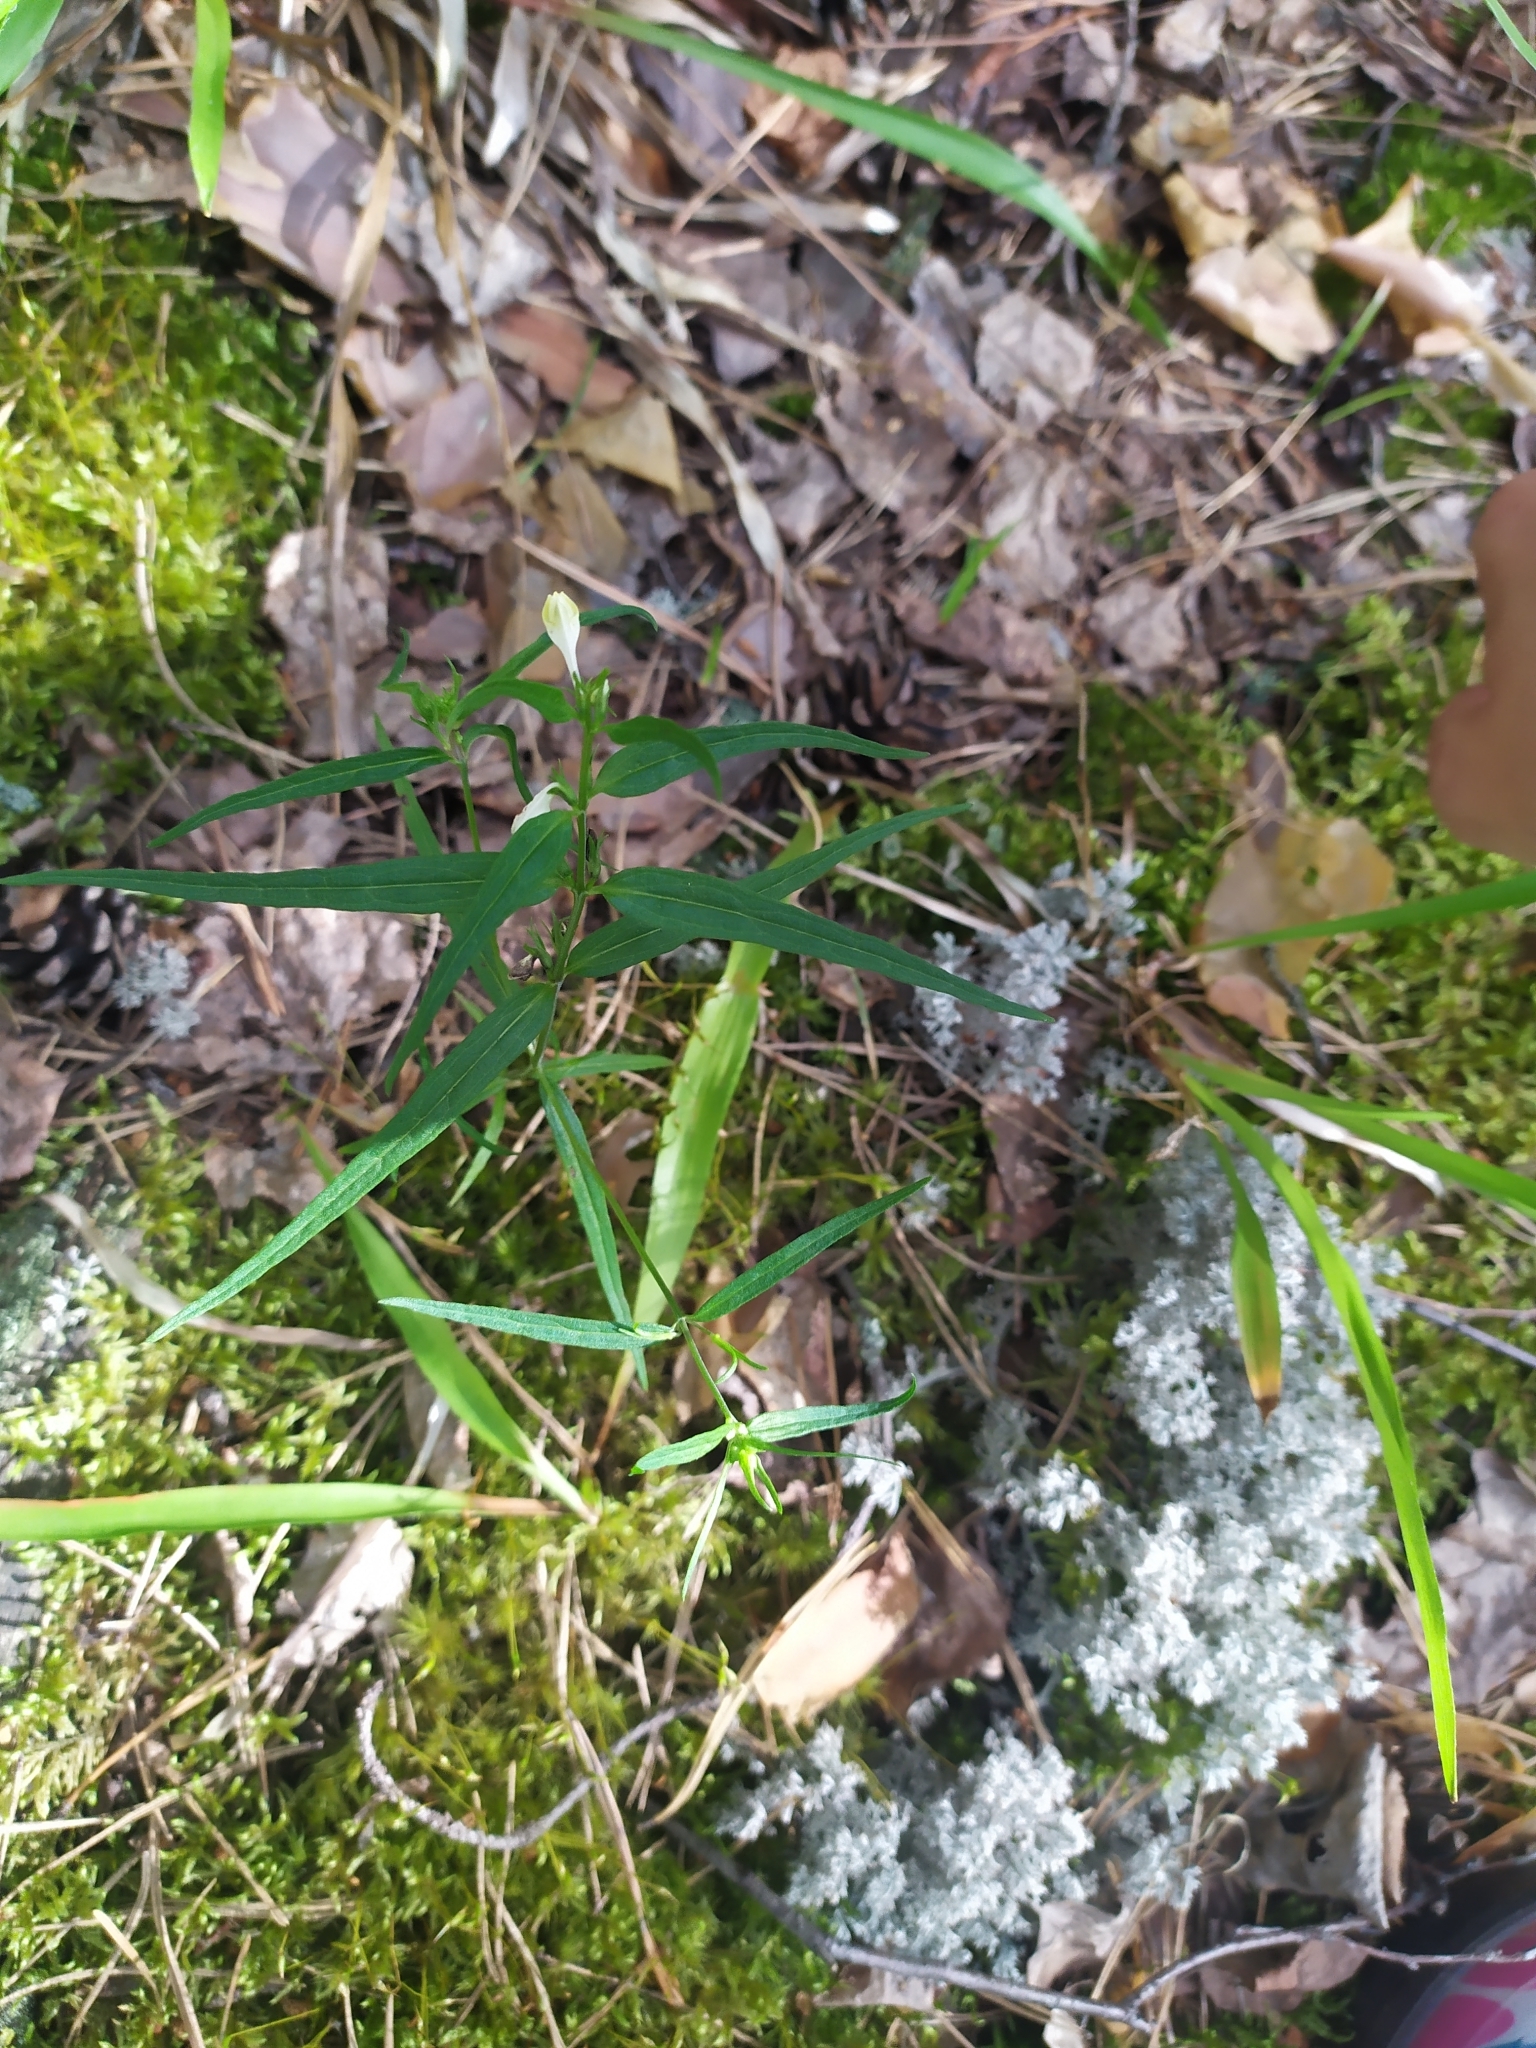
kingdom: Plantae
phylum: Tracheophyta
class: Magnoliopsida
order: Lamiales
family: Orobanchaceae
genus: Melampyrum
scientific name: Melampyrum pratense
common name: Common cow-wheat
